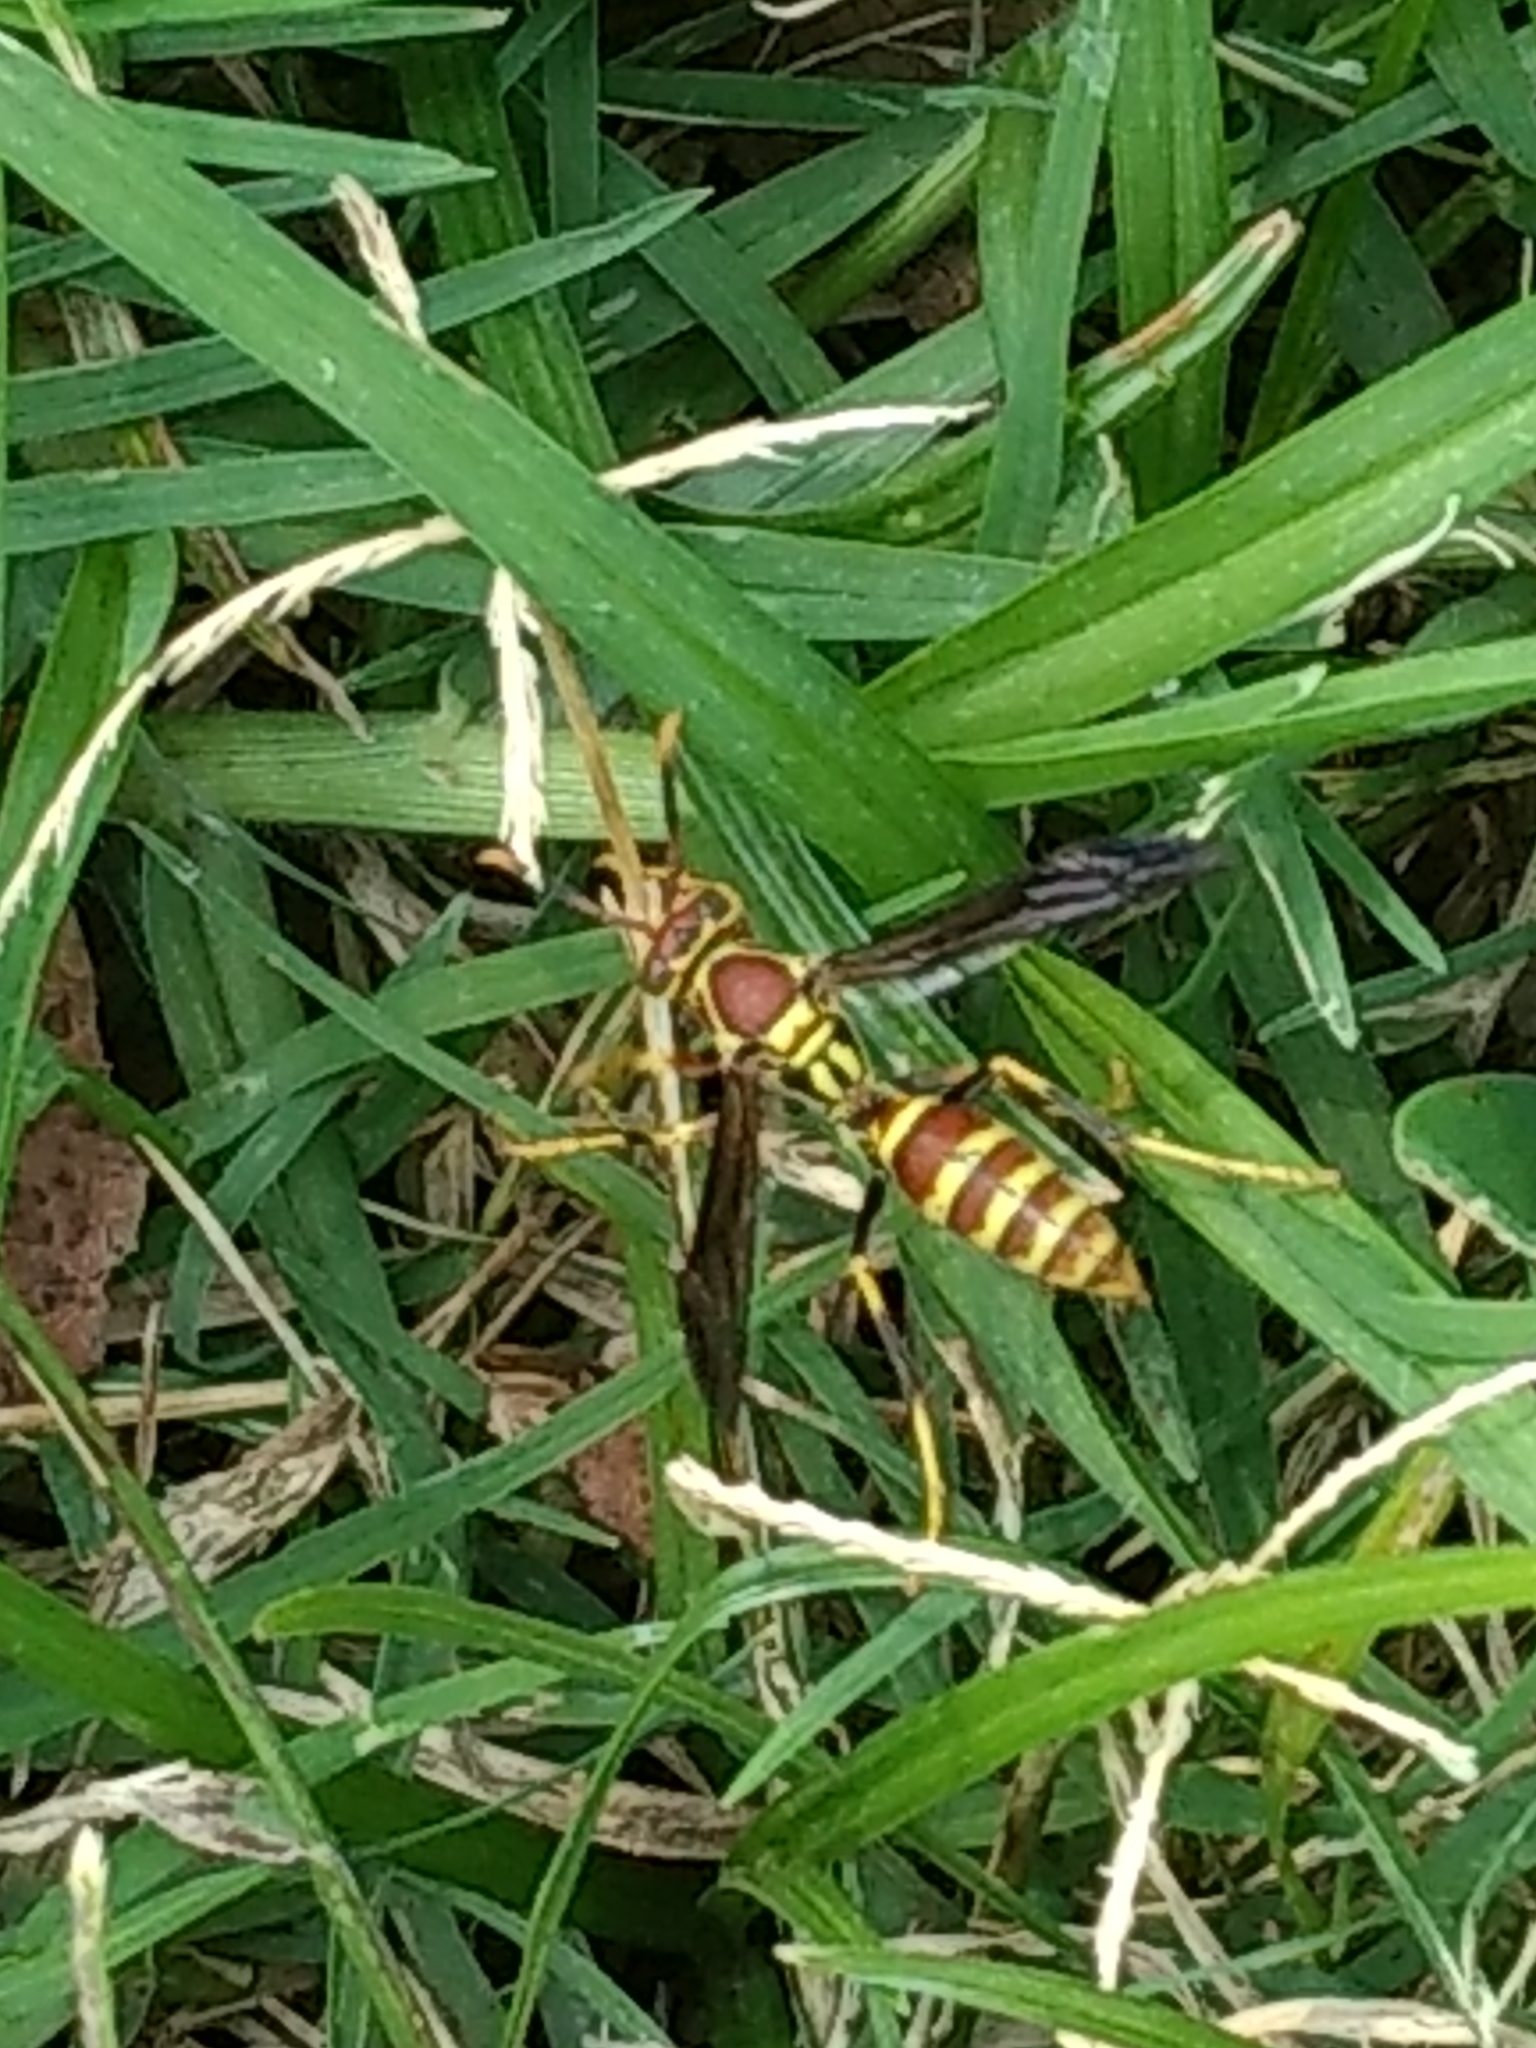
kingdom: Animalia
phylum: Arthropoda
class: Insecta
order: Hymenoptera
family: Eumenidae
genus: Polistes
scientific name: Polistes exclamans
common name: Paper wasp
